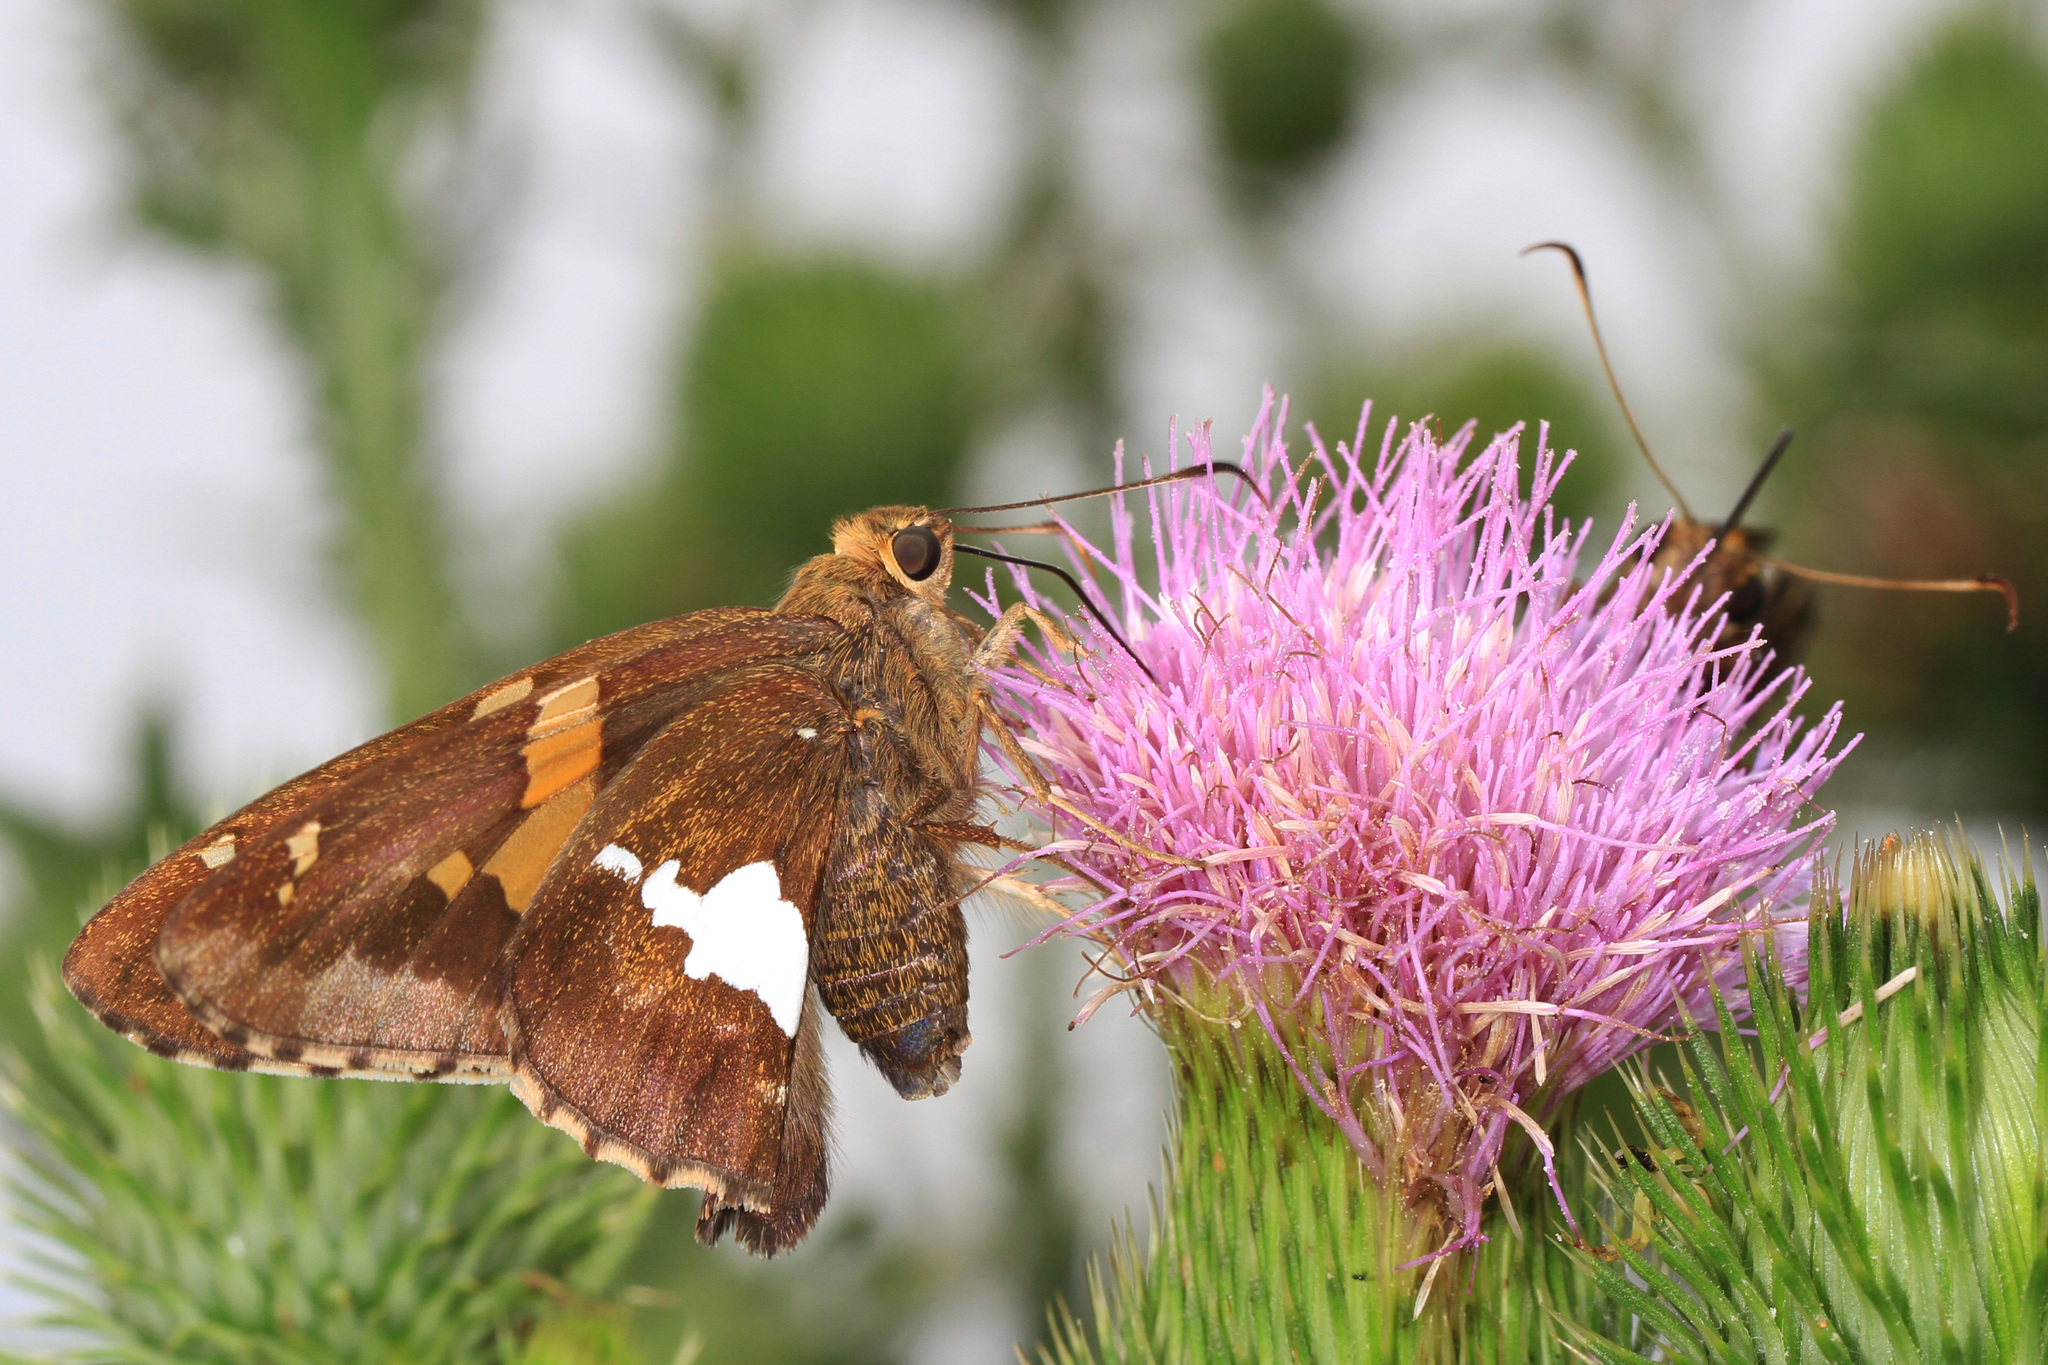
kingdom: Animalia
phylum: Arthropoda
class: Insecta
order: Lepidoptera
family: Hesperiidae
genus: Epargyreus
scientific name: Epargyreus clarus
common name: Silver-spotted skipper
